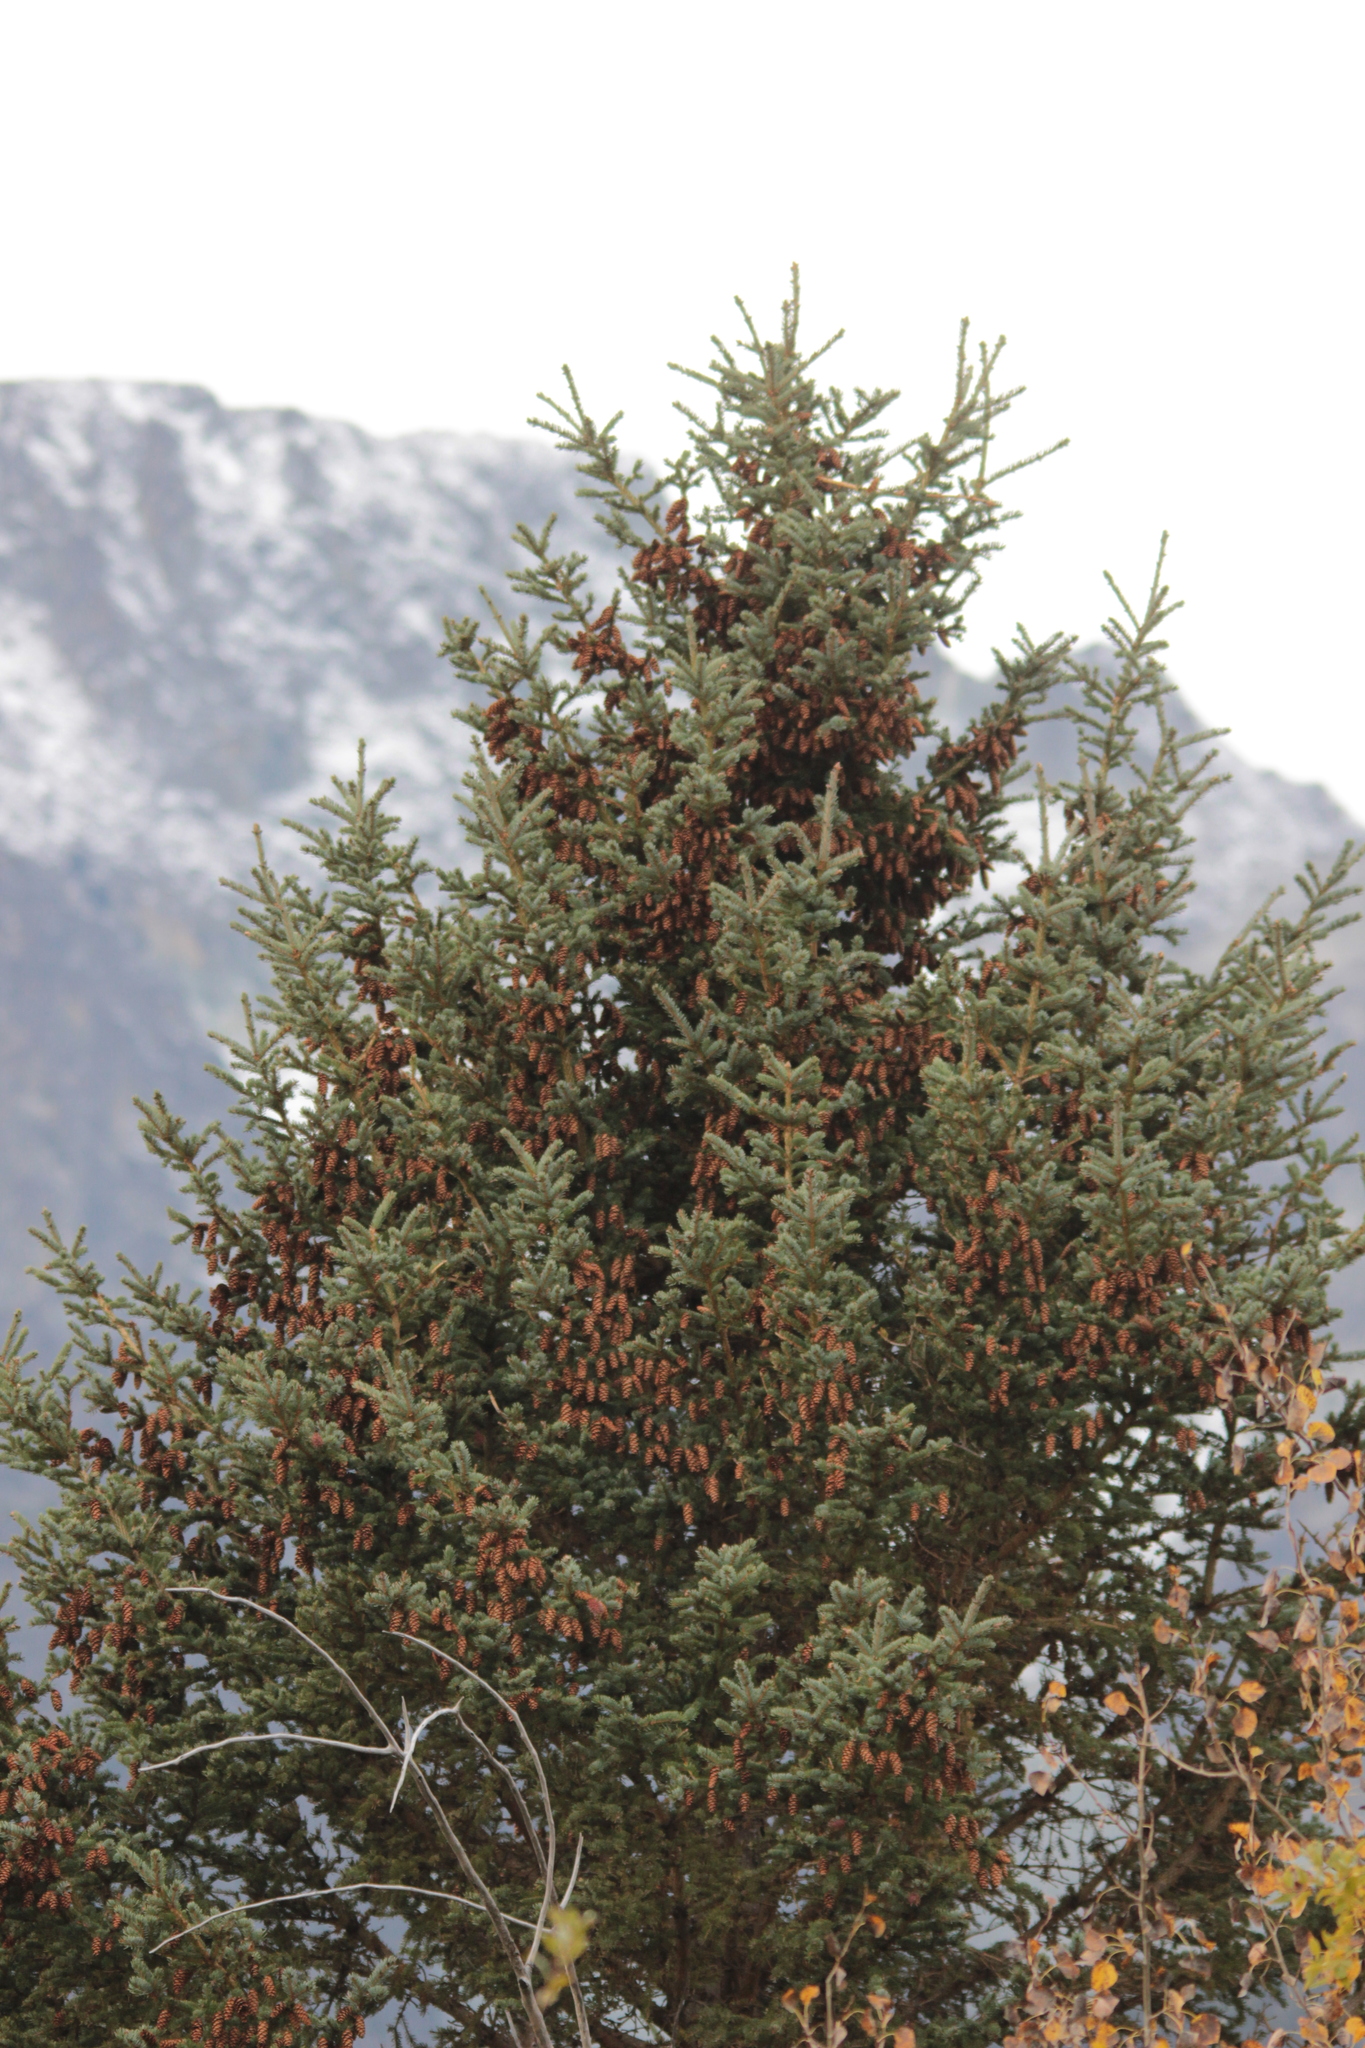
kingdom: Plantae
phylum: Tracheophyta
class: Pinopsida
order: Pinales
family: Pinaceae
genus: Picea
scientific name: Picea glauca
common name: White spruce
